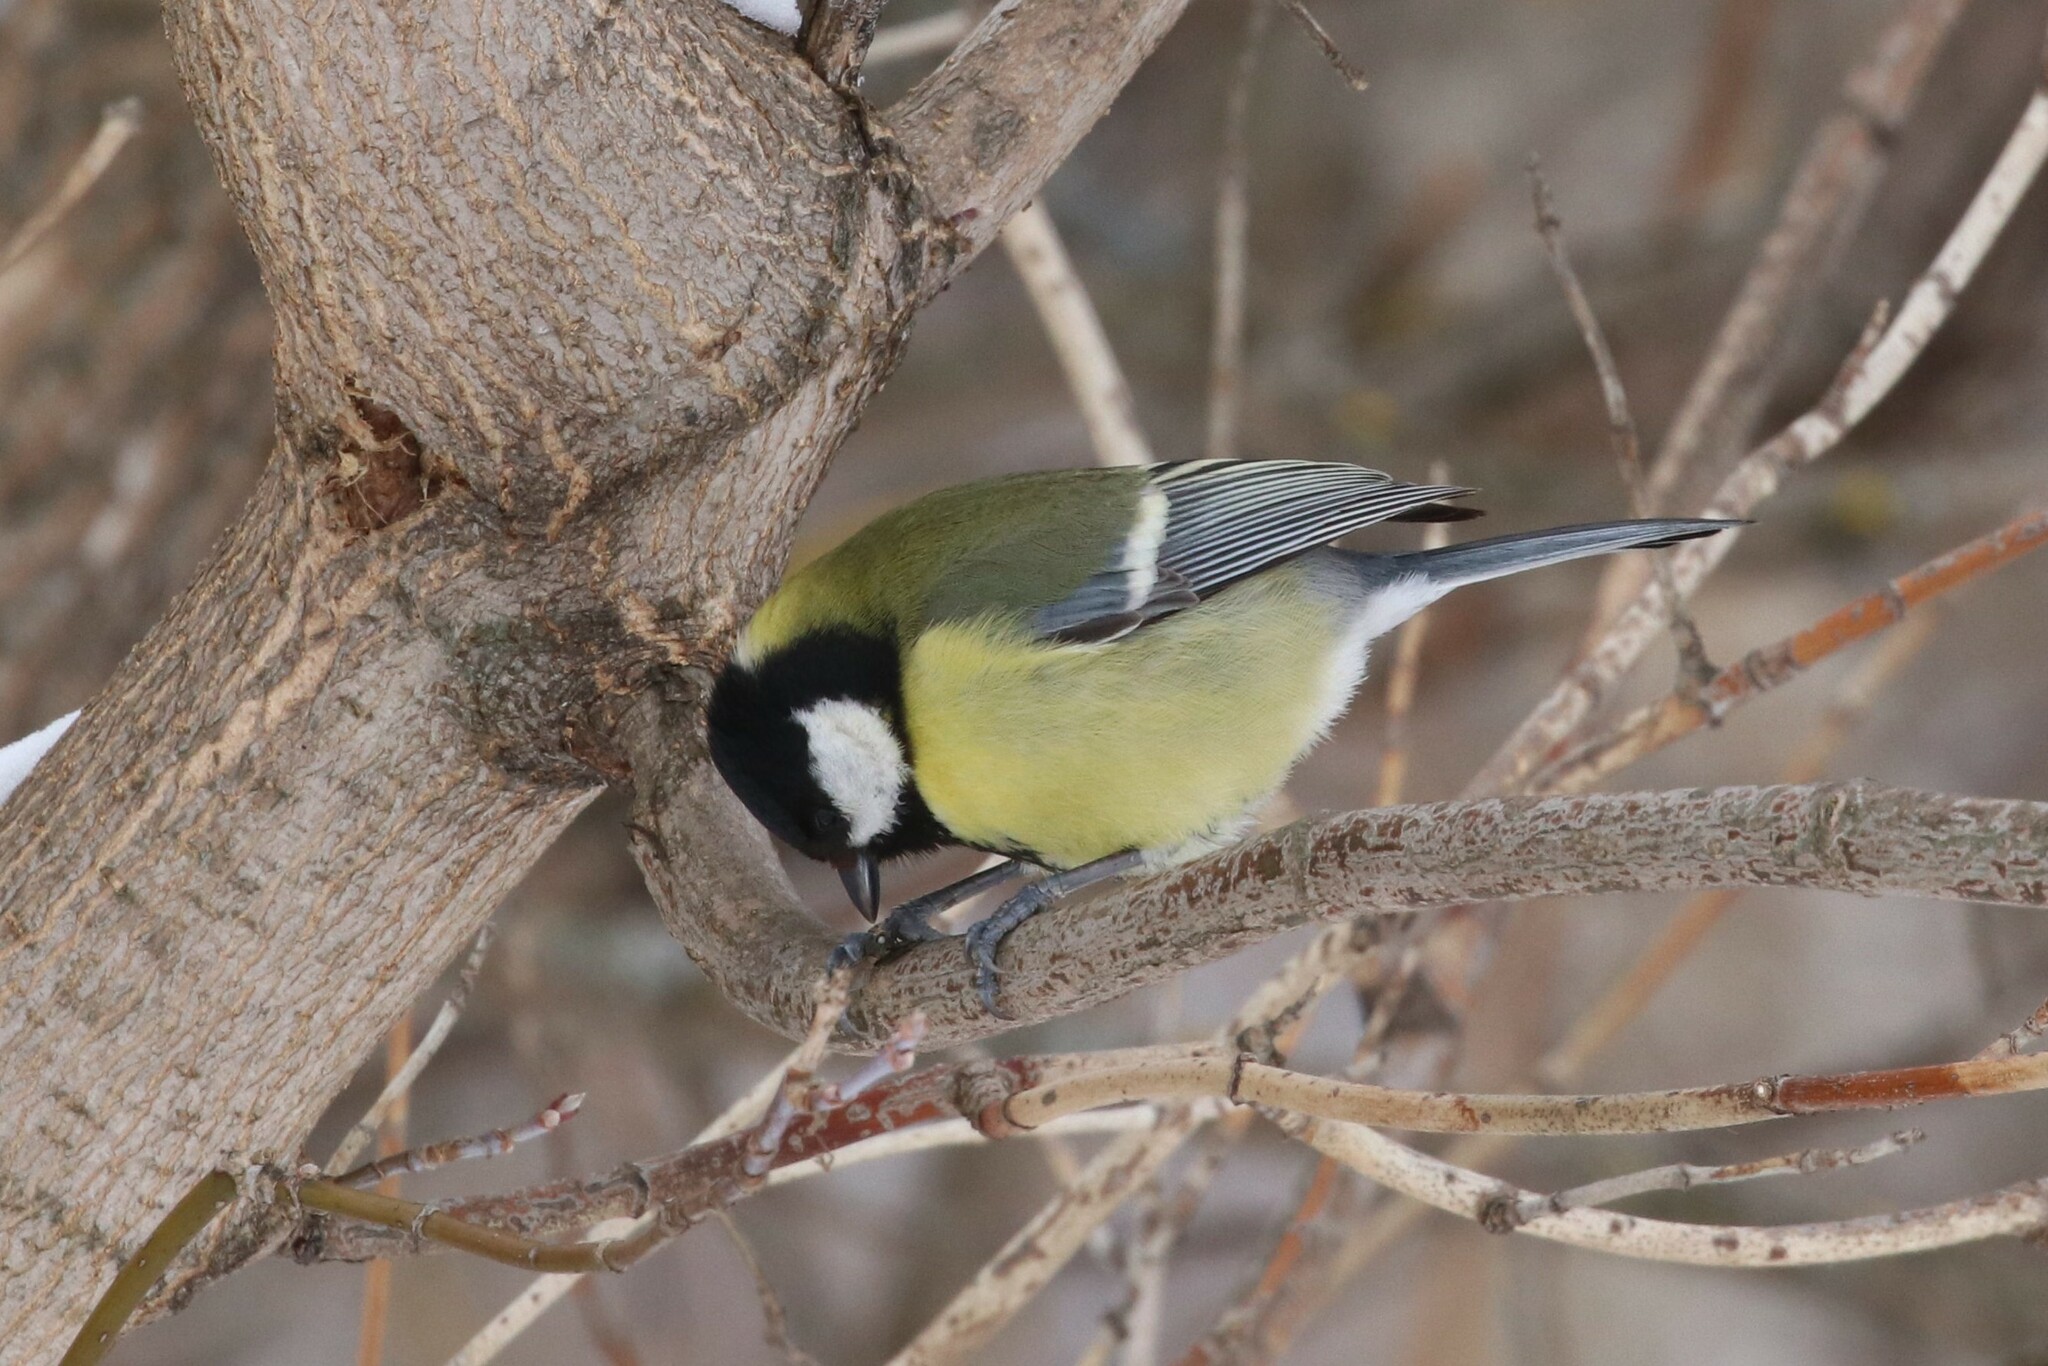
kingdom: Animalia
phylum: Chordata
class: Aves
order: Passeriformes
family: Paridae
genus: Parus
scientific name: Parus major
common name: Great tit
